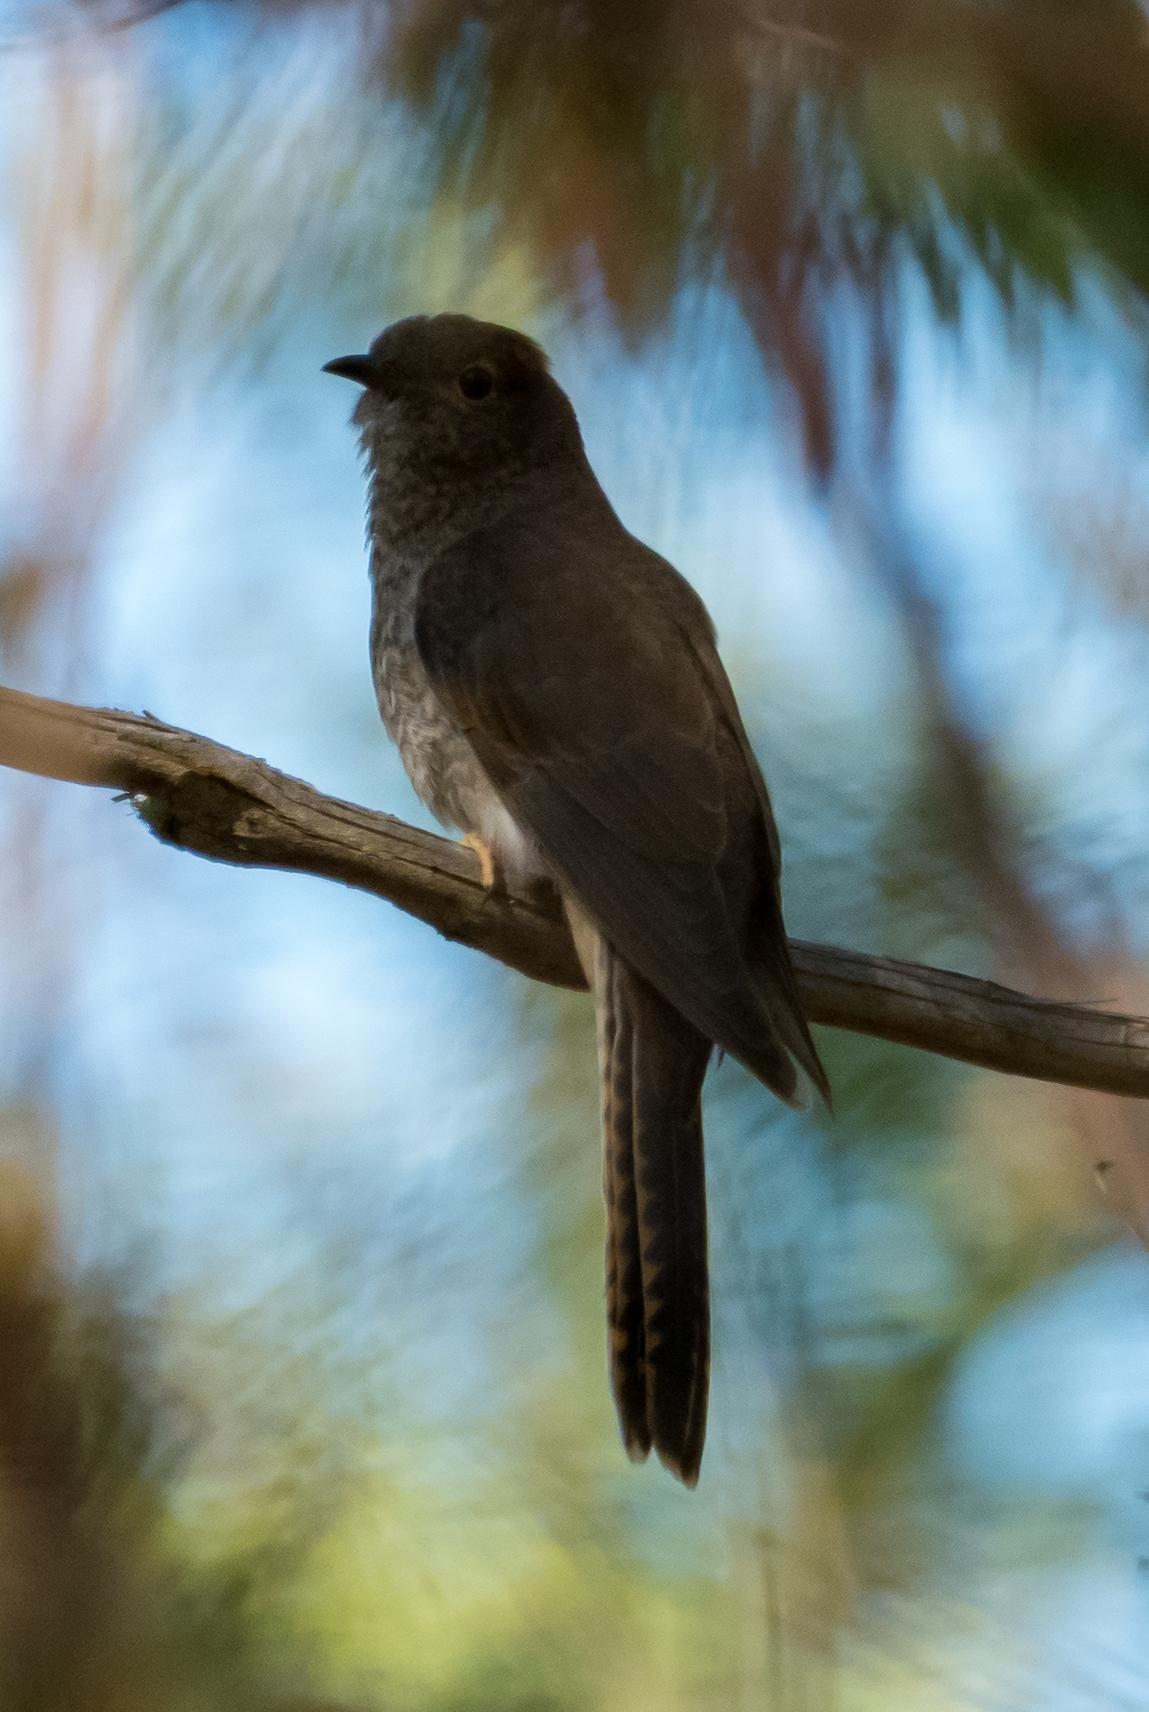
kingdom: Animalia
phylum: Chordata
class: Aves
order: Cuculiformes
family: Cuculidae
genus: Cacomantis
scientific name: Cacomantis flabelliformis
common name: Fan-tailed cuckoo
